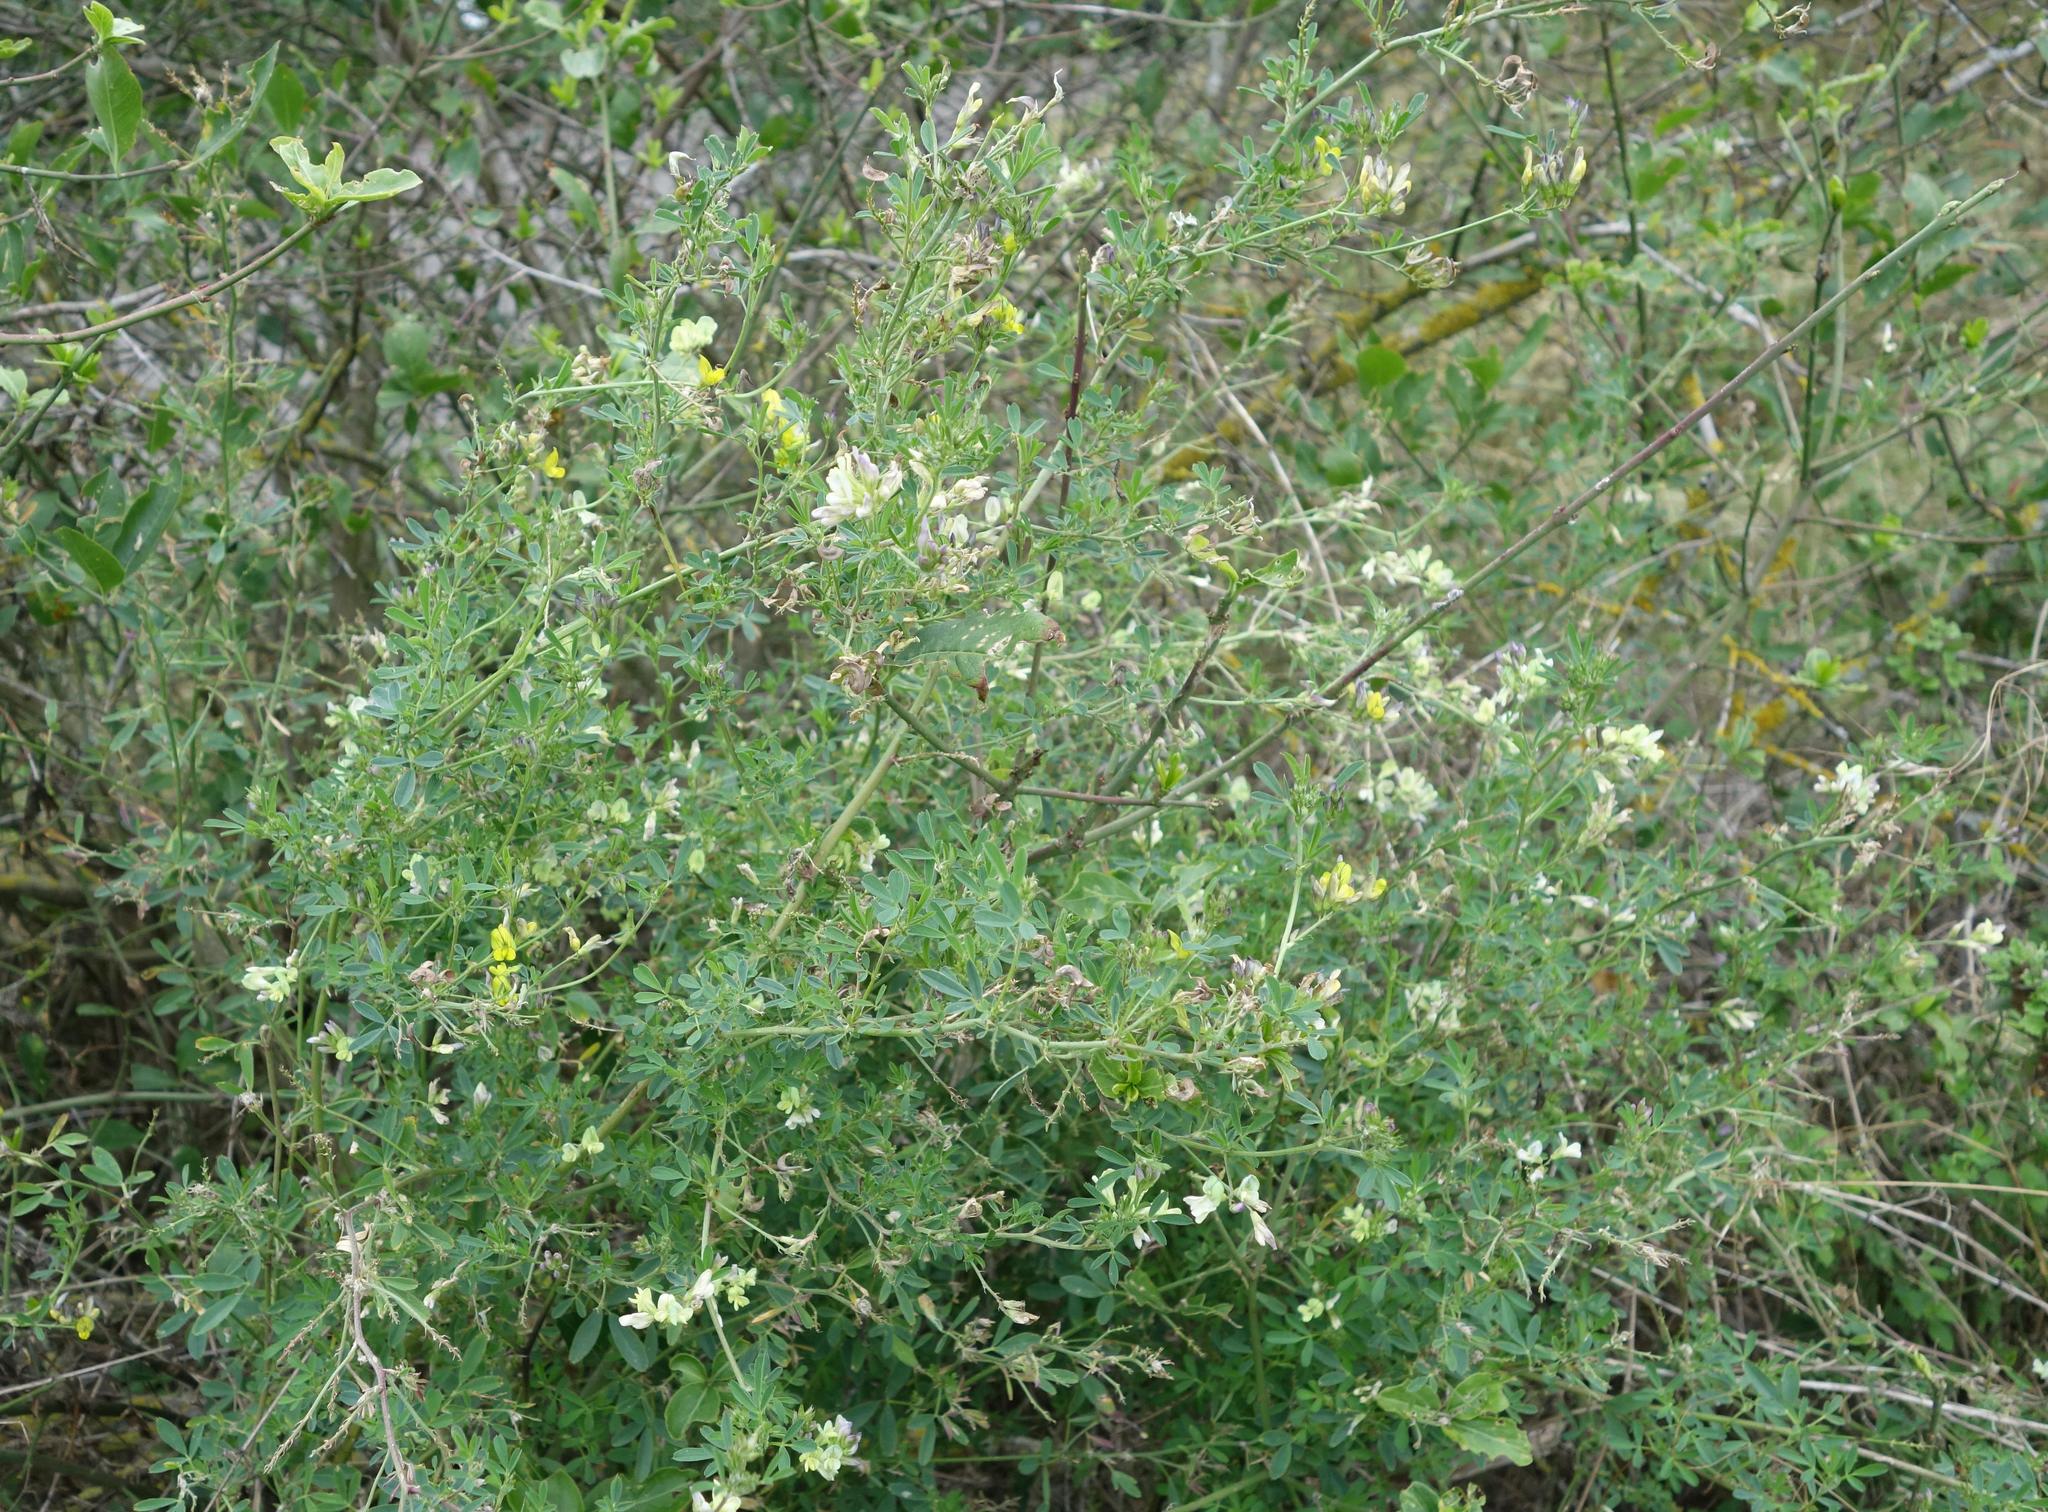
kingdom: Plantae
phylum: Tracheophyta
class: Magnoliopsida
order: Fabales
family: Fabaceae
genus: Medicago
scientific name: Medicago varia
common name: Sand lucerne
